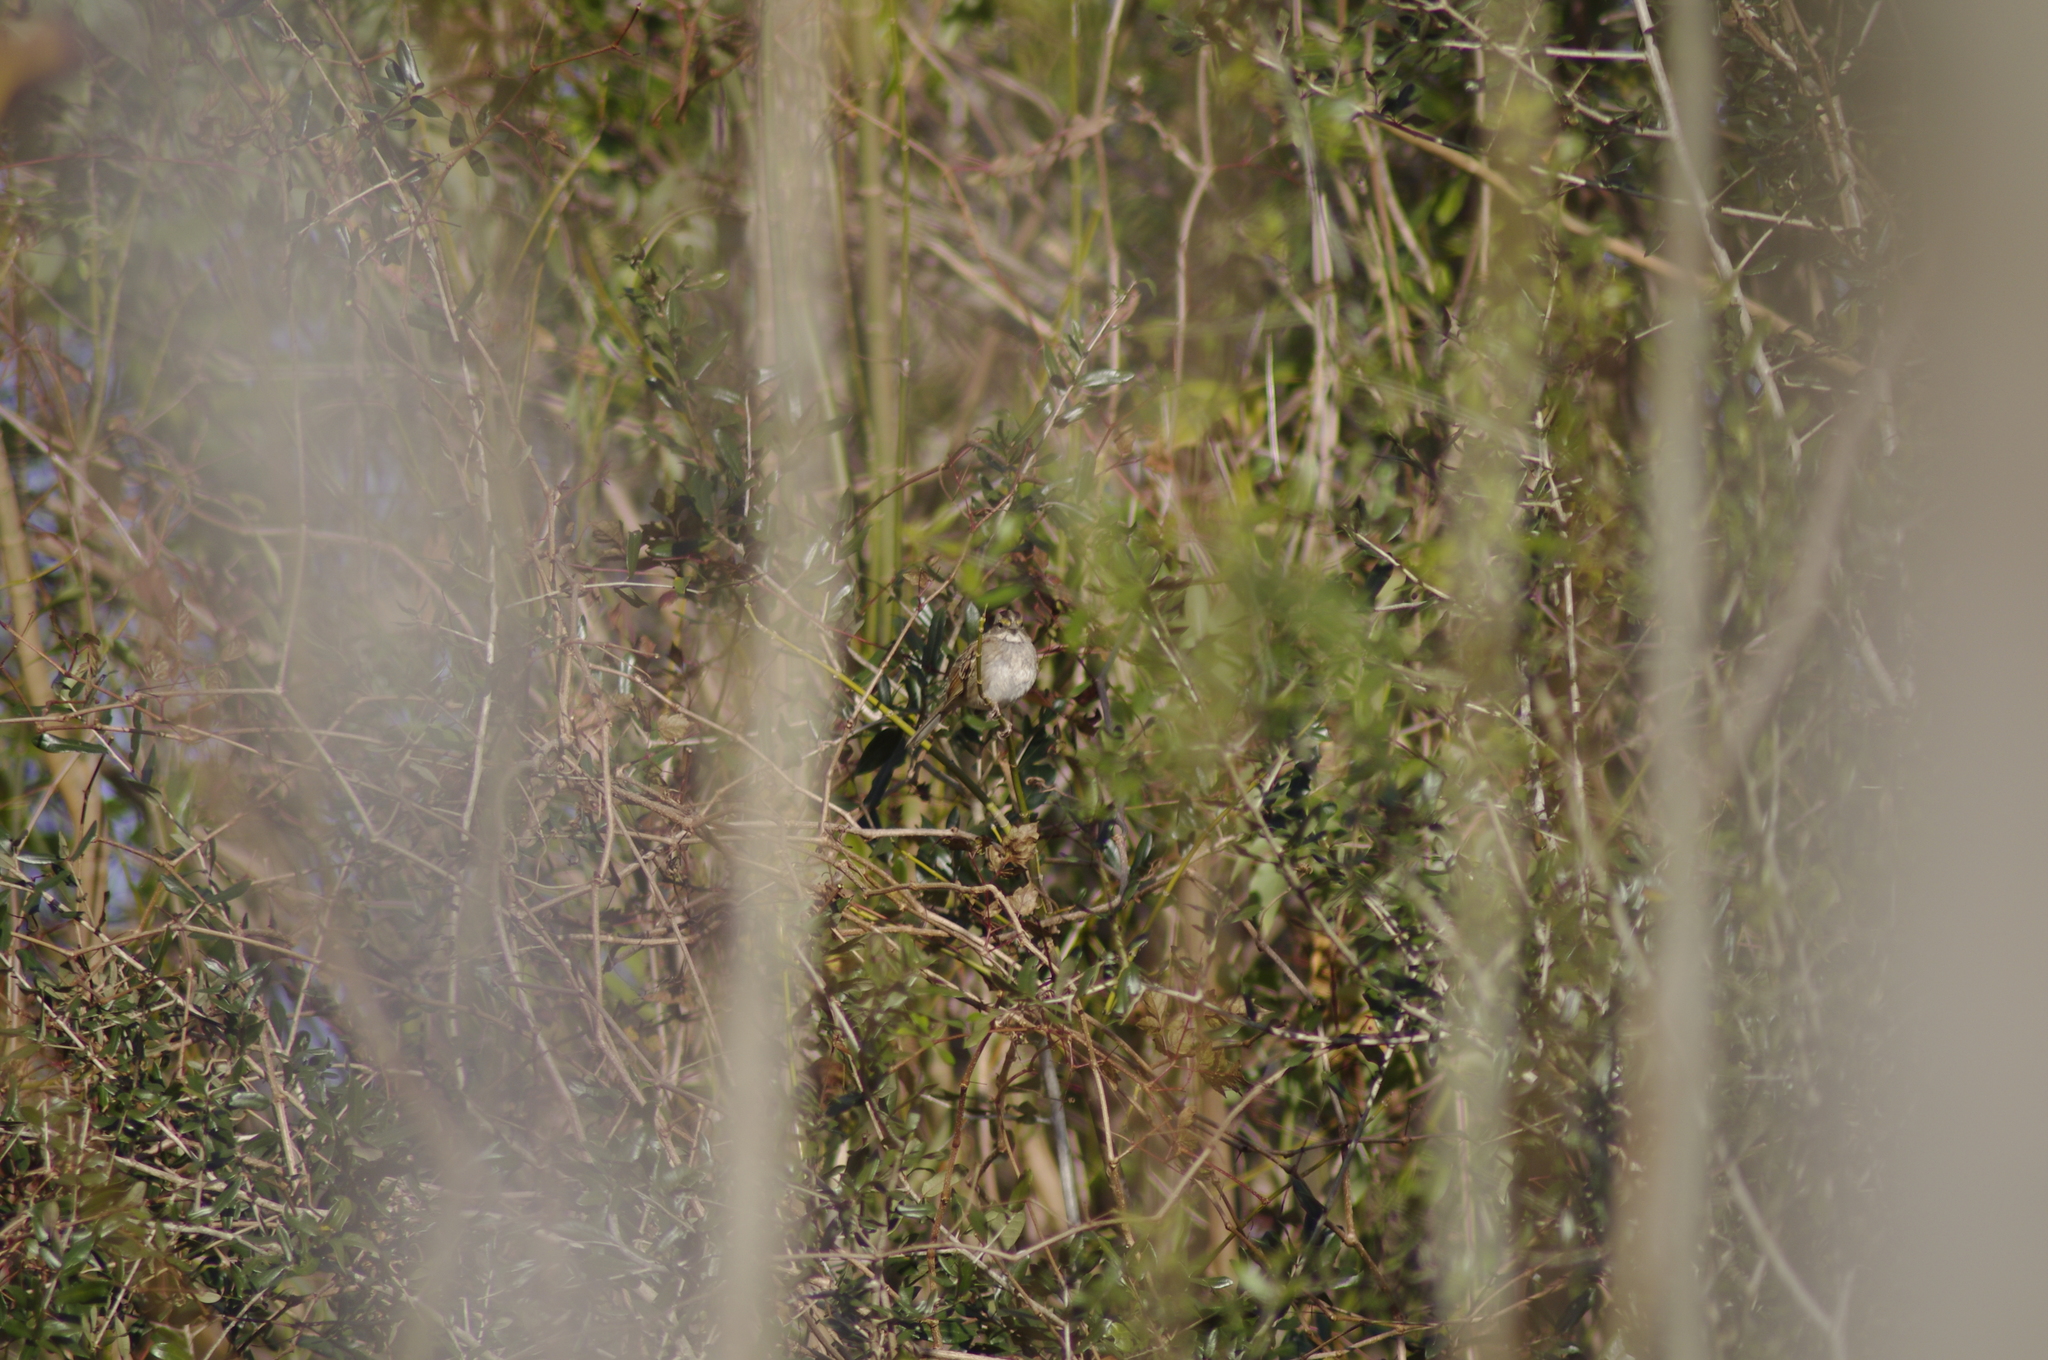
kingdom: Animalia
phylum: Chordata
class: Aves
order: Passeriformes
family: Passerellidae
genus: Zonotrichia
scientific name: Zonotrichia albicollis
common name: White-throated sparrow
